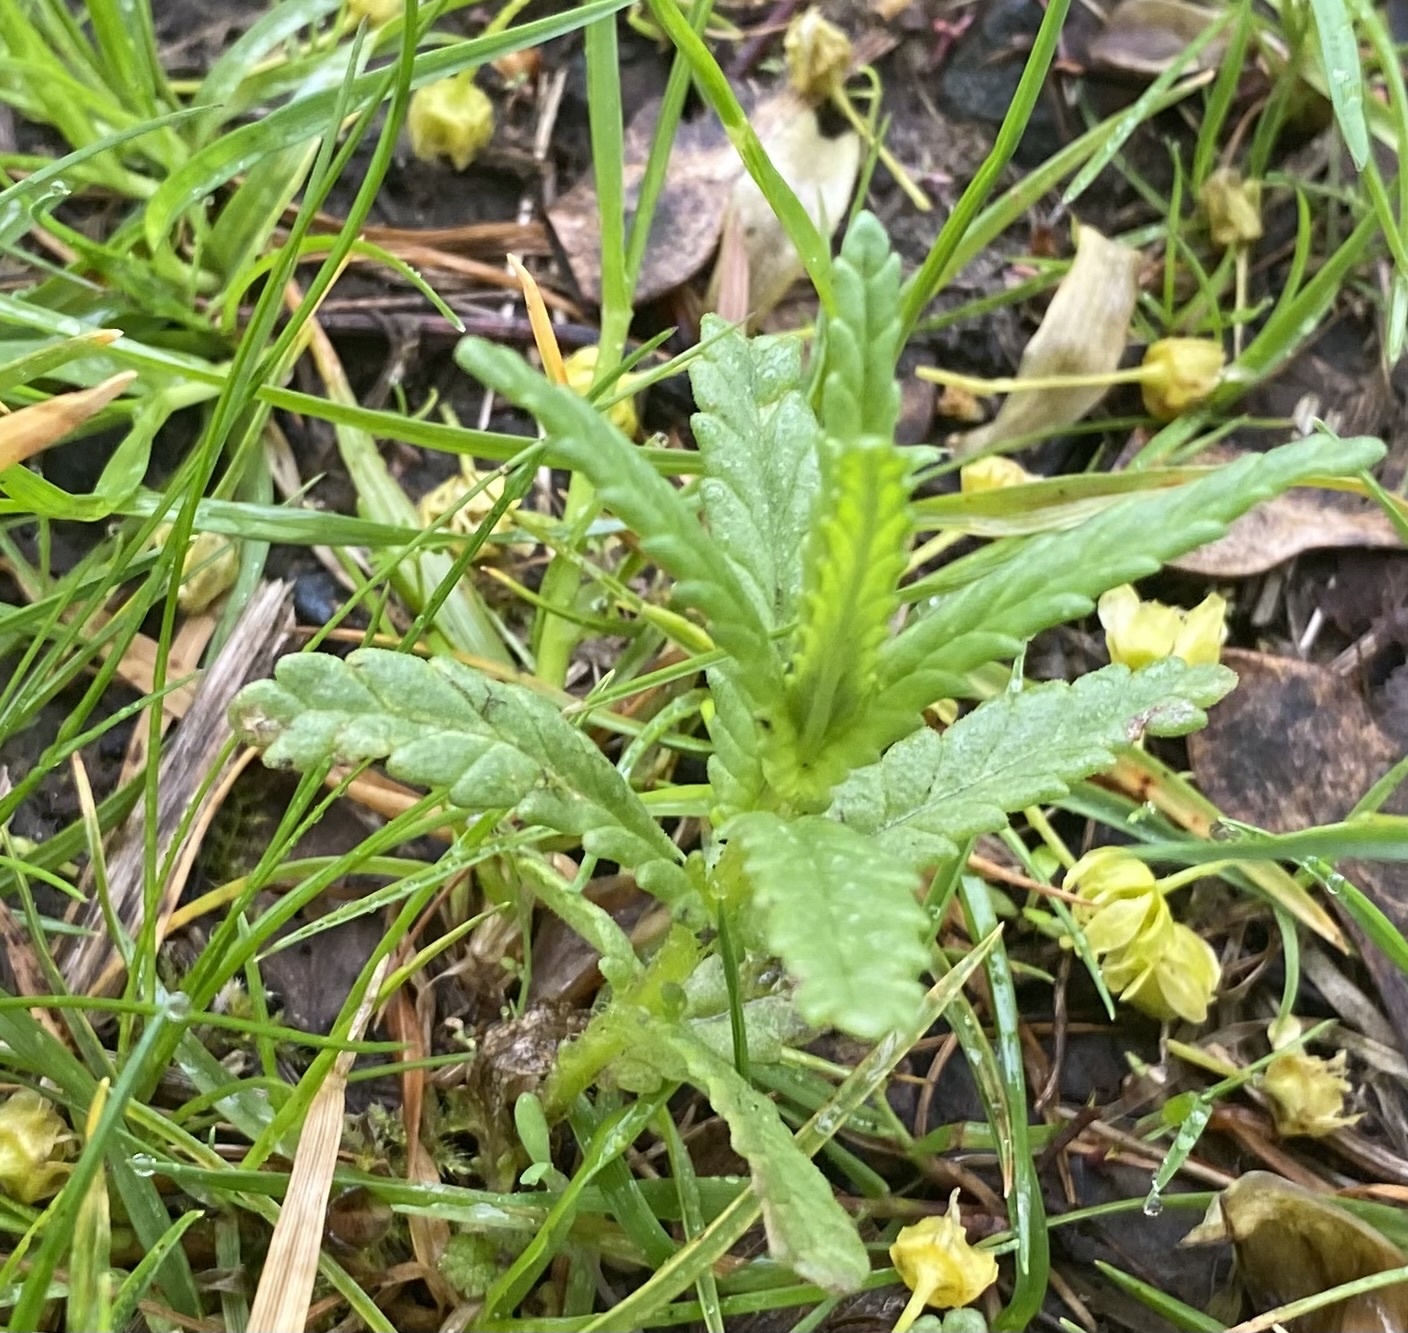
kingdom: Plantae
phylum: Tracheophyta
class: Magnoliopsida
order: Lamiales
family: Orobanchaceae
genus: Rhinanthus
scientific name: Rhinanthus minor
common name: Yellow-rattle
